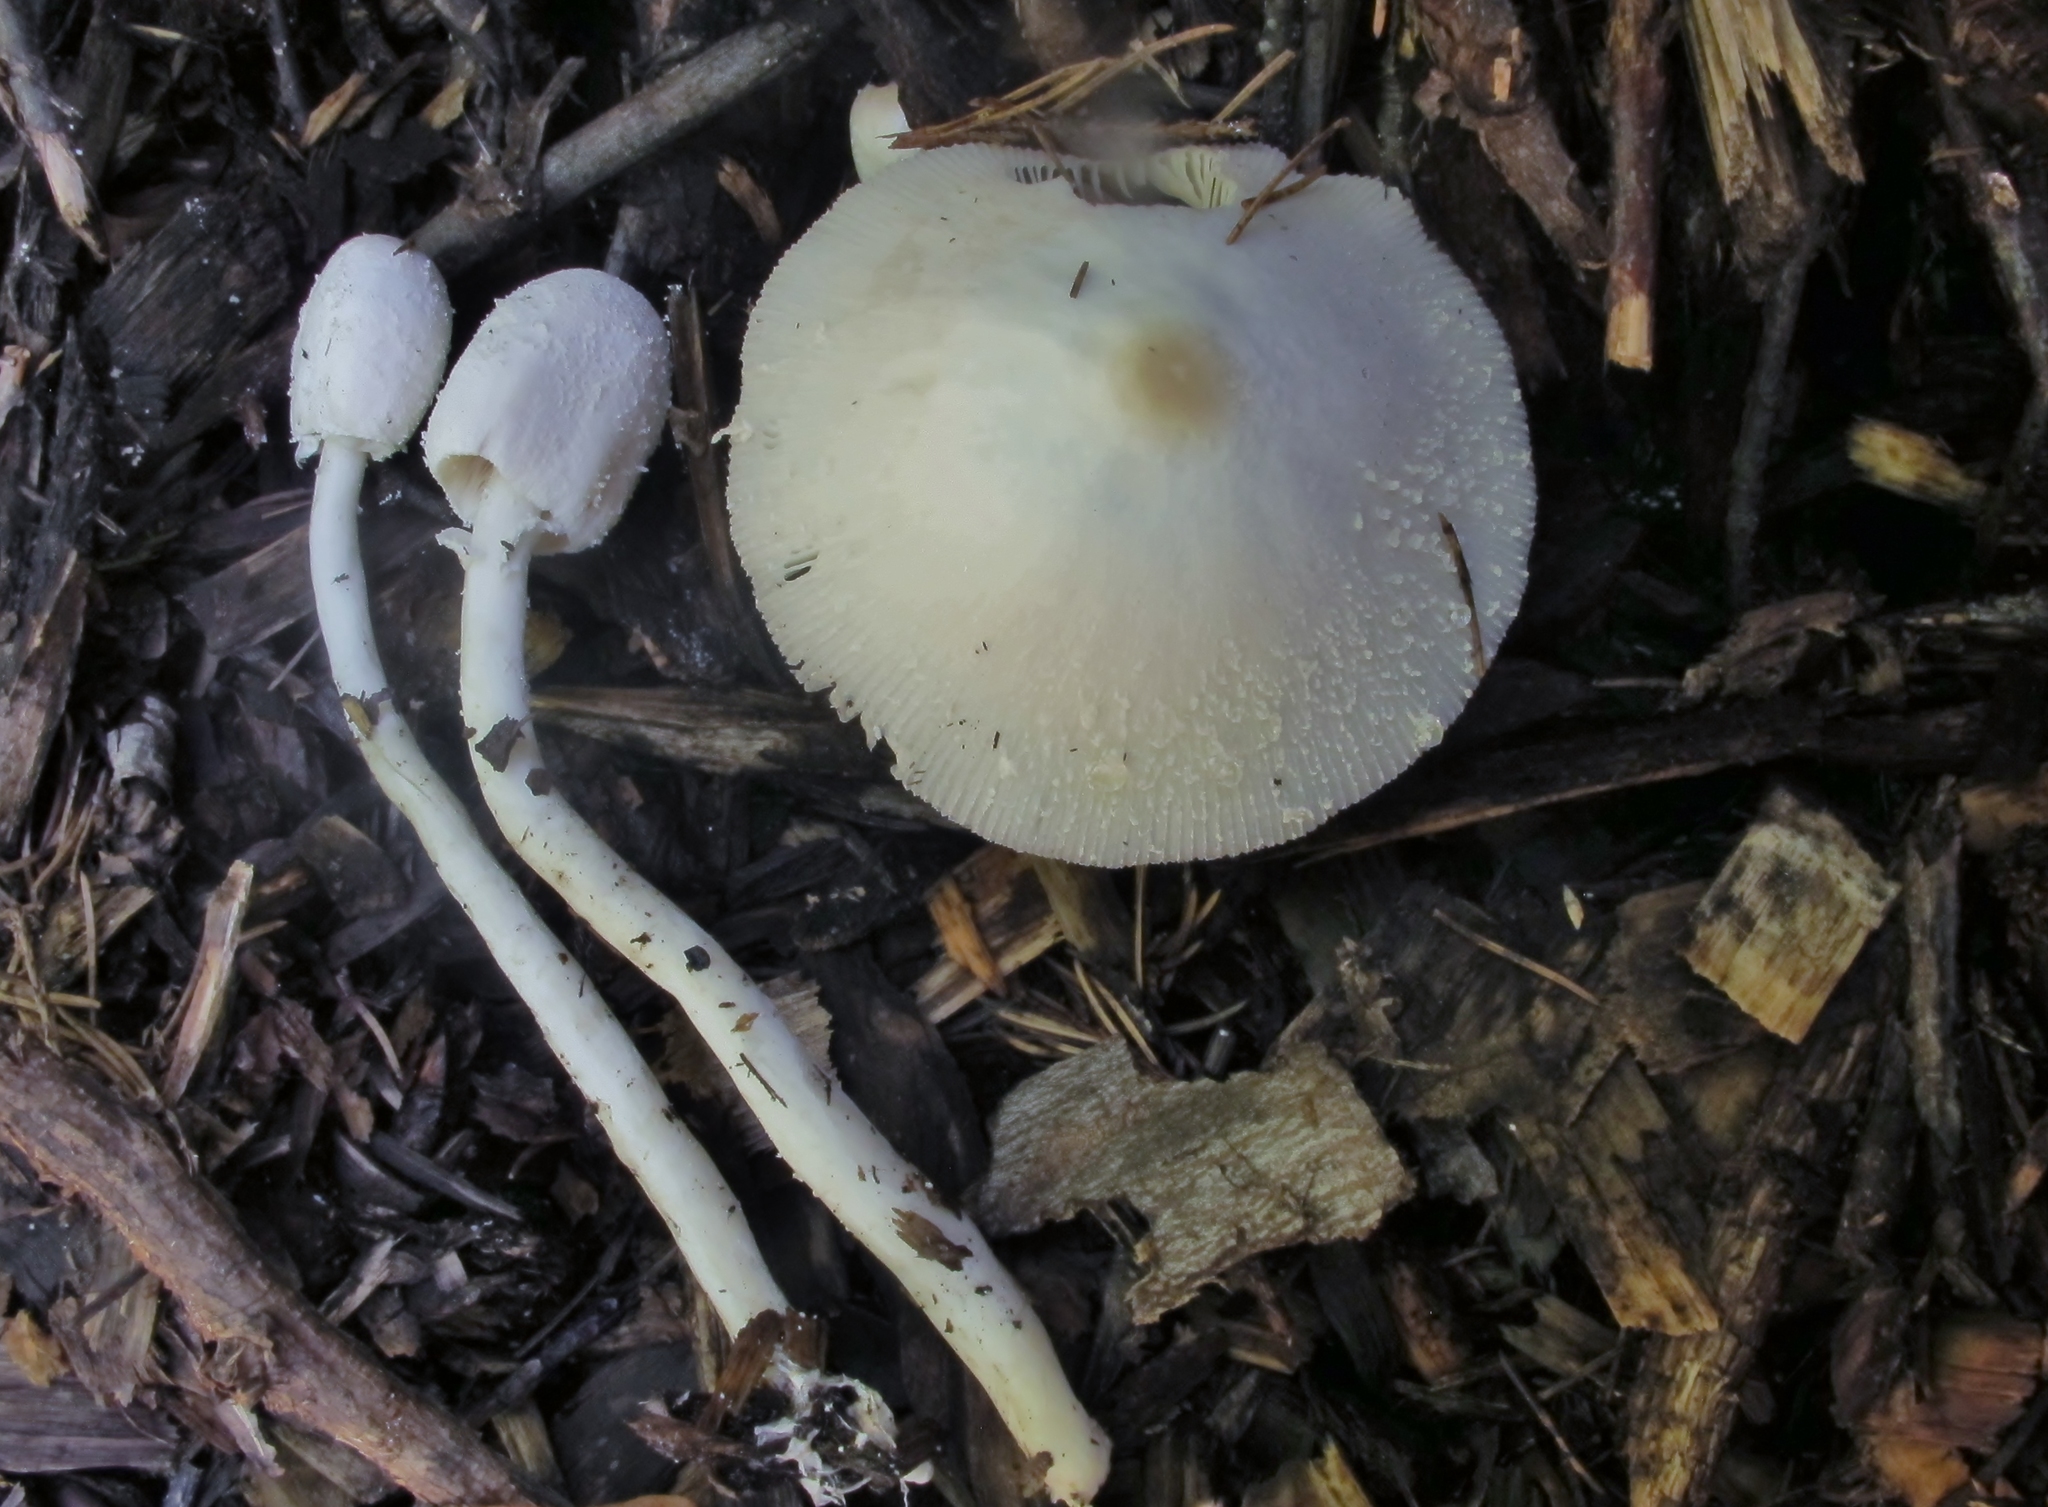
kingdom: Fungi
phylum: Basidiomycota
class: Agaricomycetes
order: Agaricales
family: Agaricaceae
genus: Leucocoprinus
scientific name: Leucocoprinus cepistipes
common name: Onion-stalk parasol
